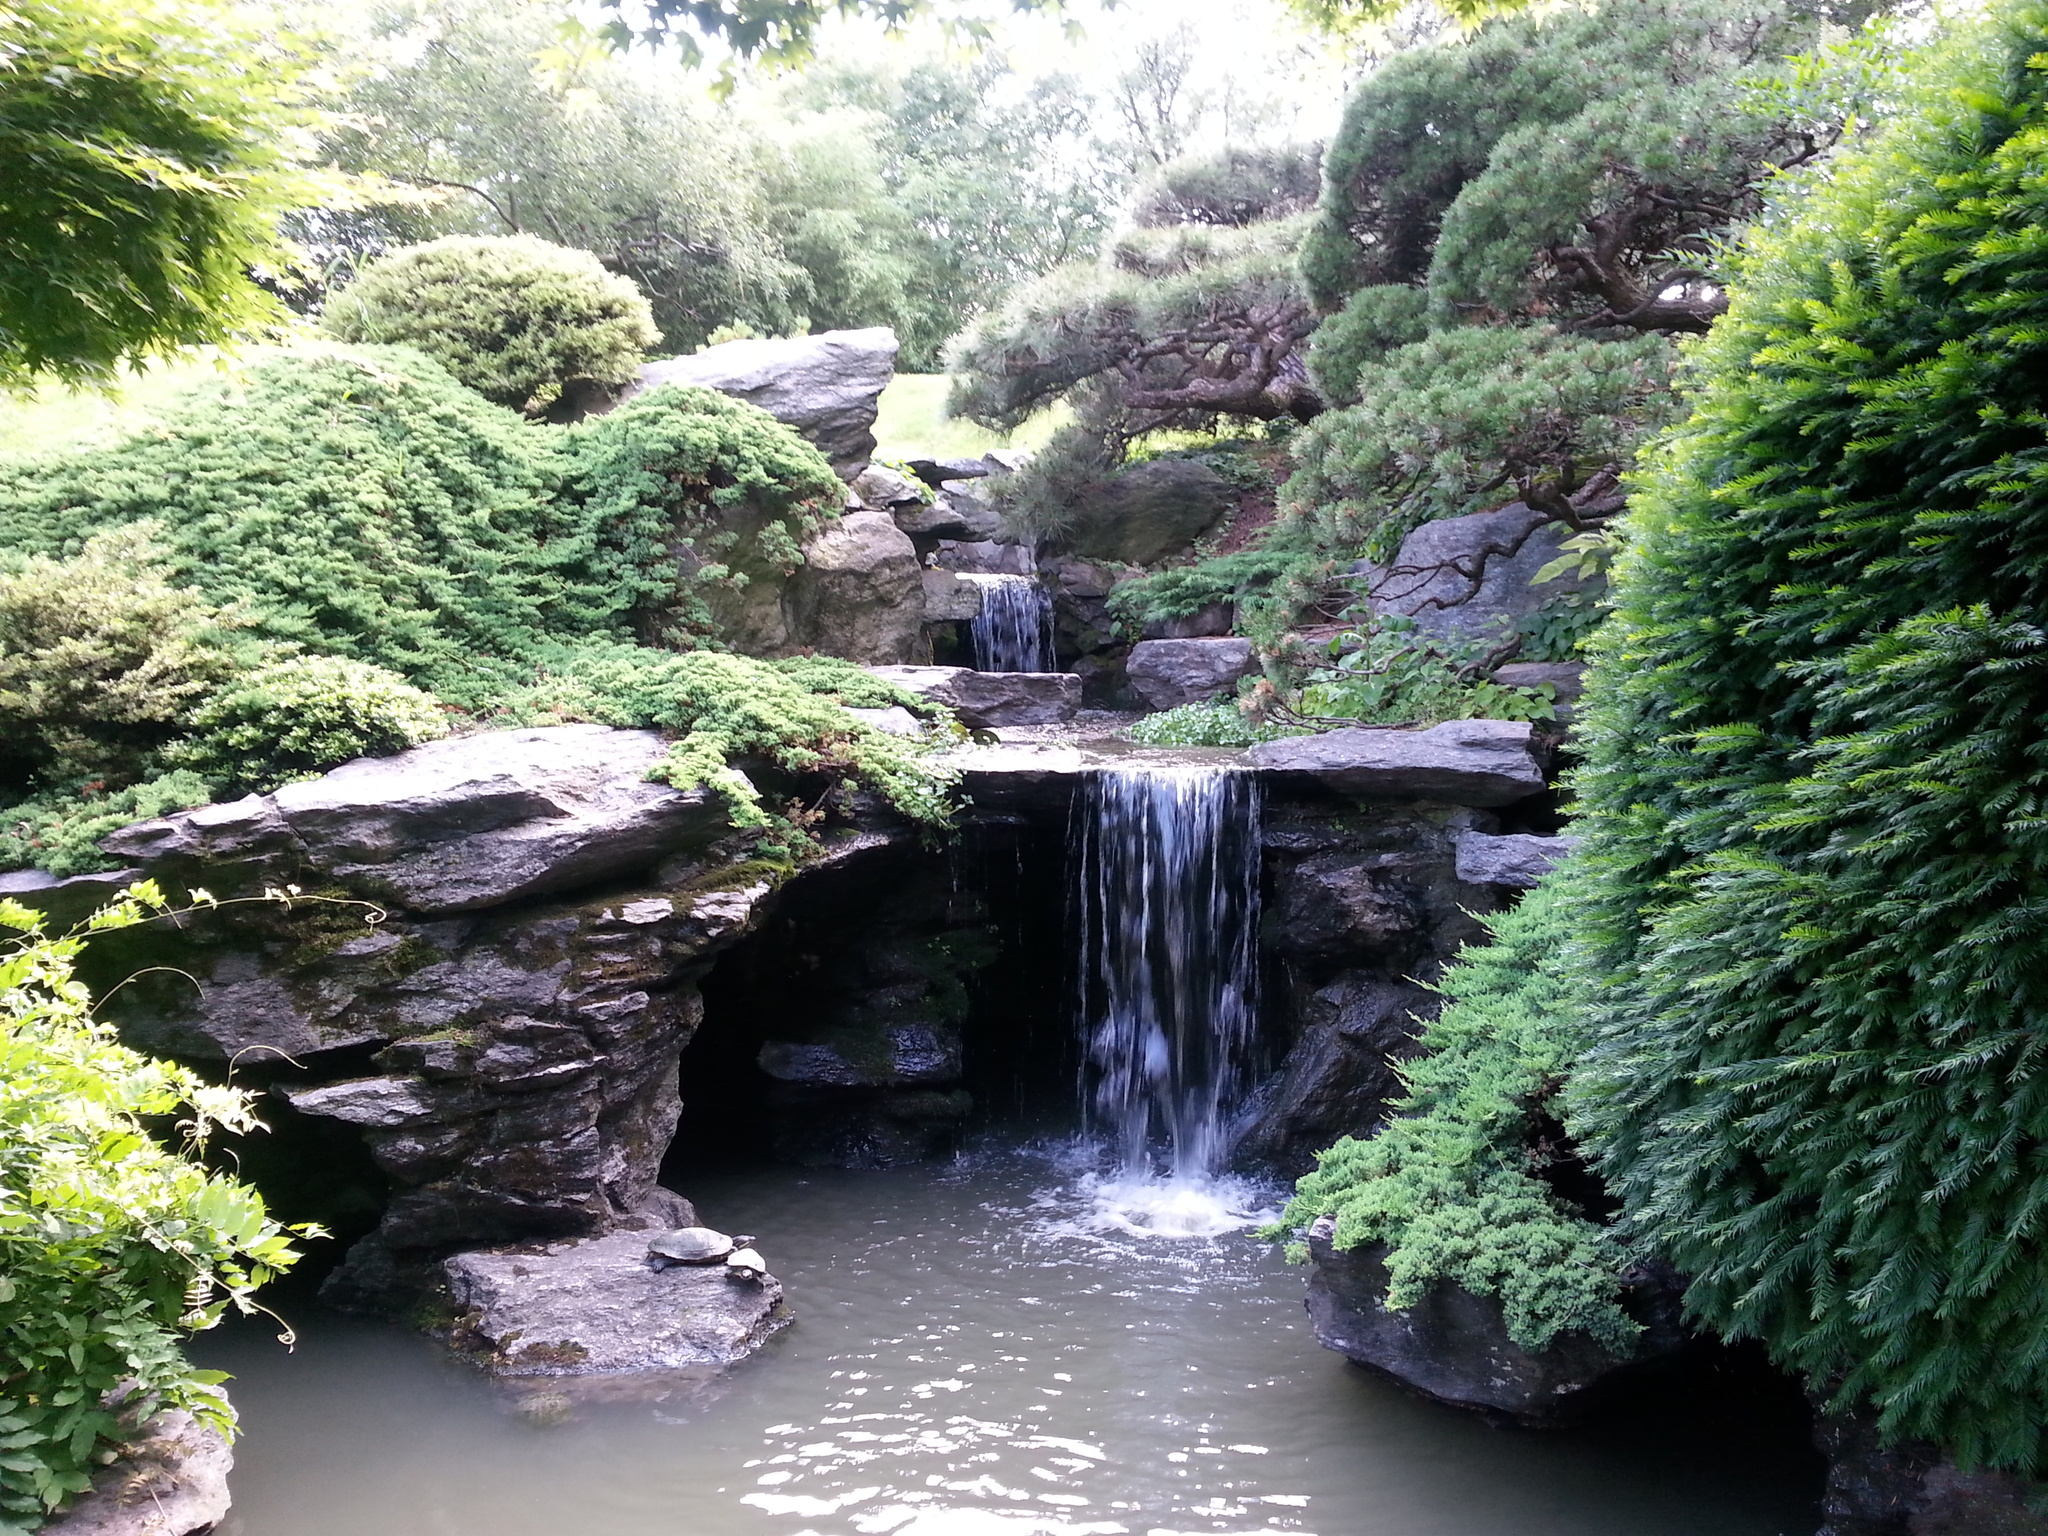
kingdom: Animalia
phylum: Chordata
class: Testudines
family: Emydidae
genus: Trachemys
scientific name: Trachemys scripta
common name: Slider
